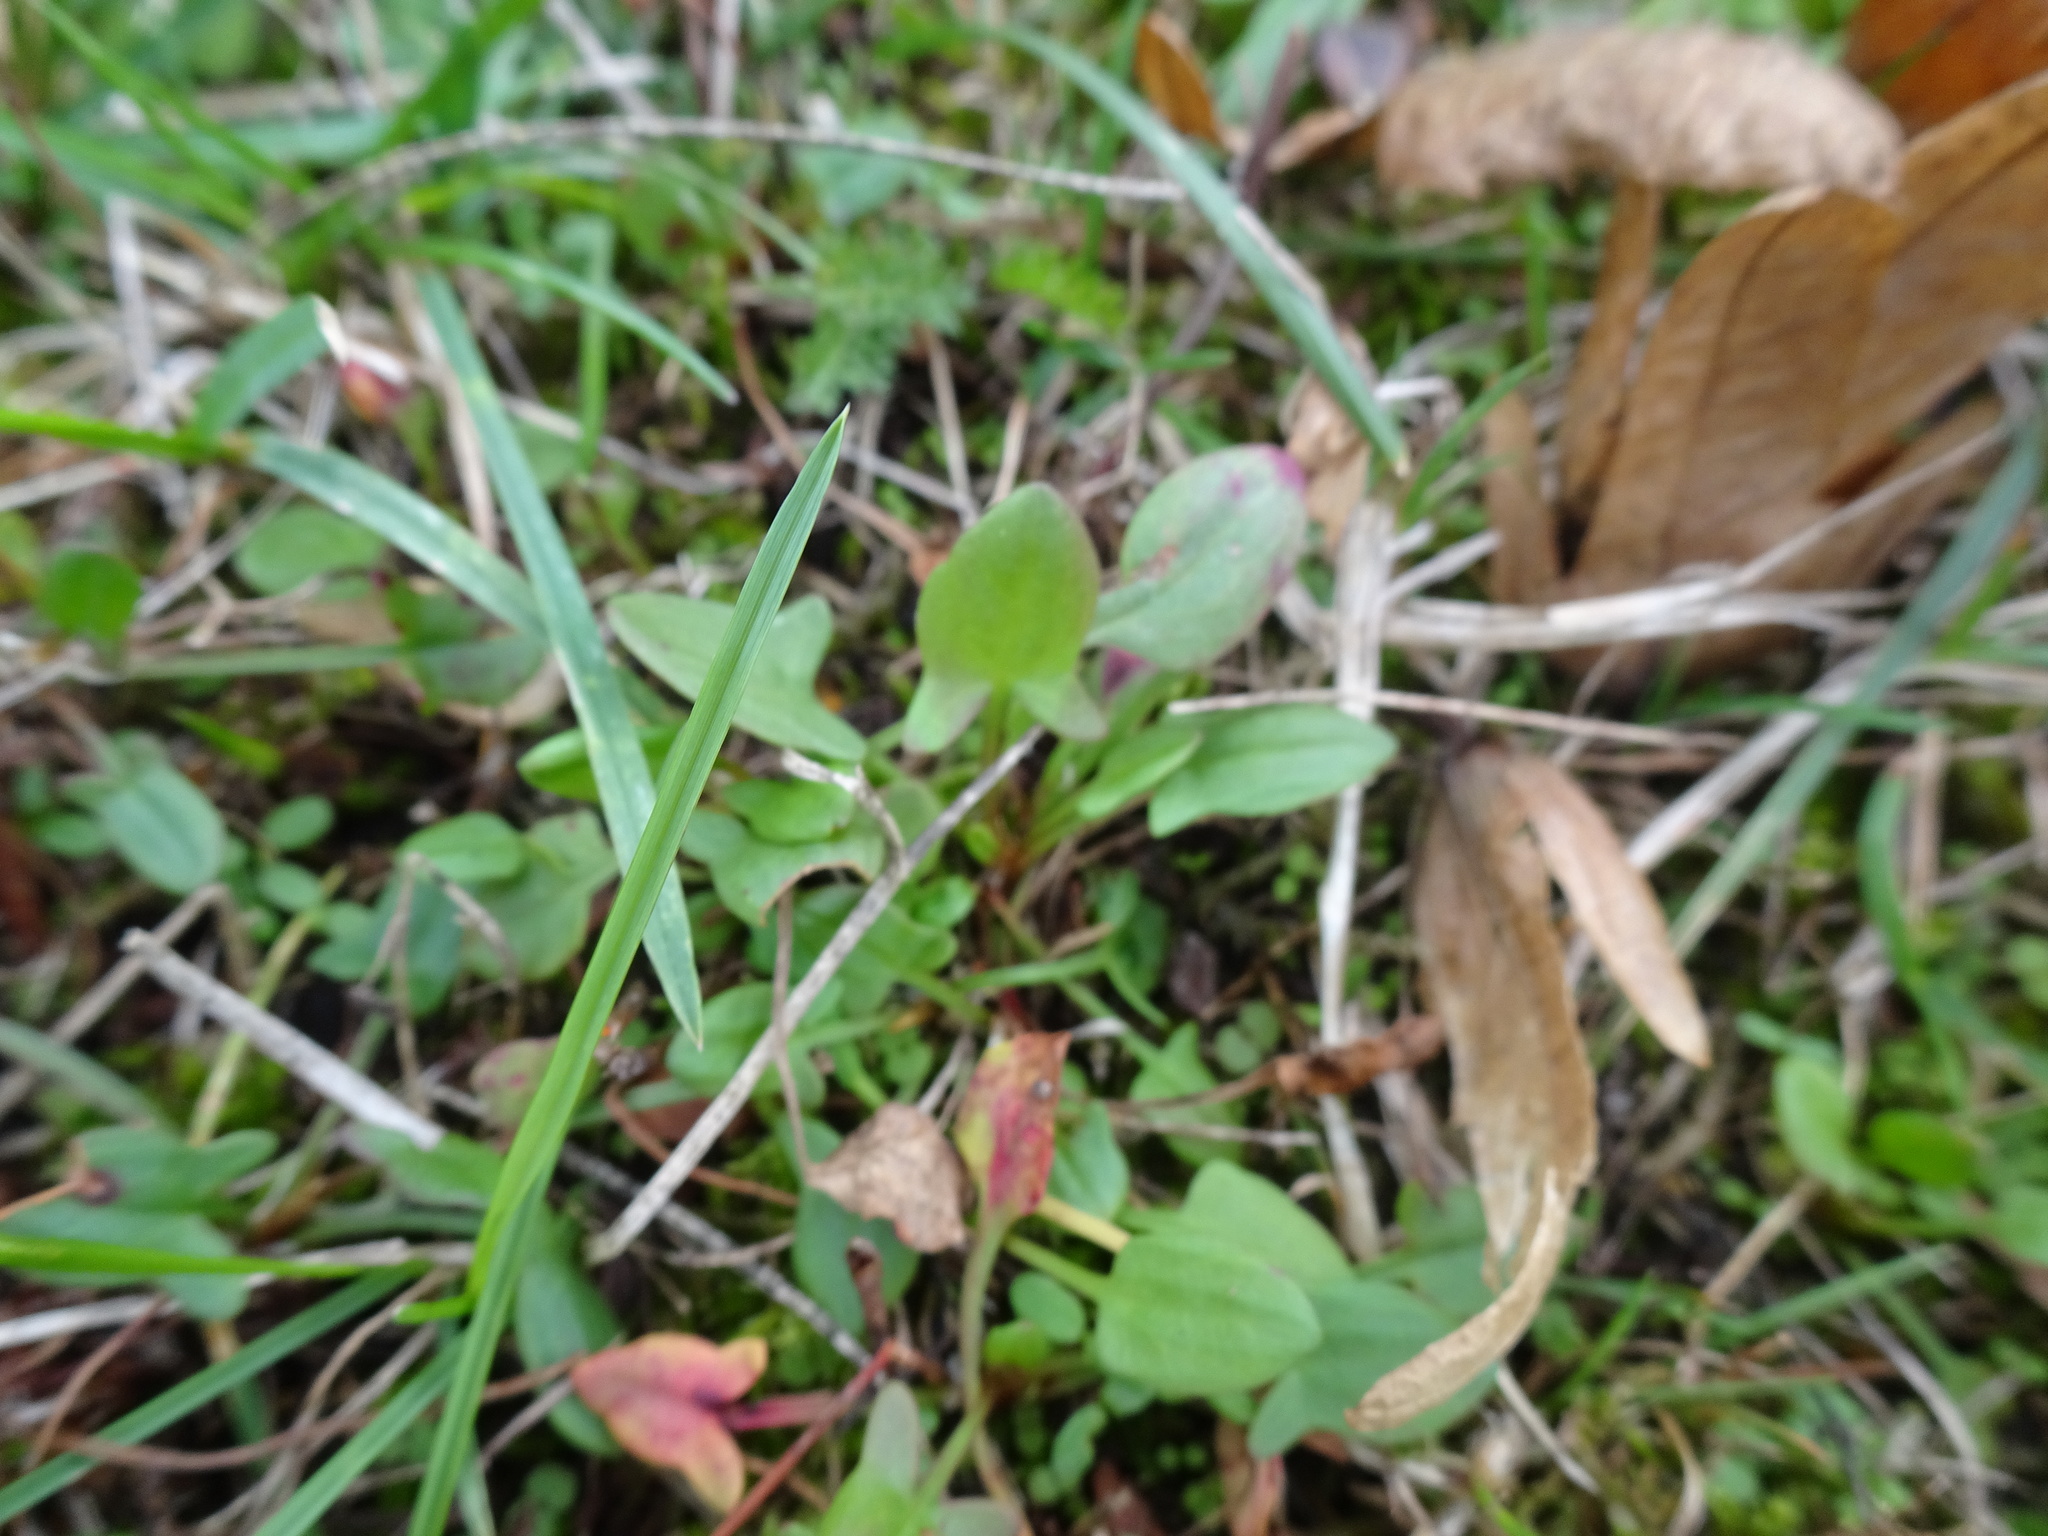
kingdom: Plantae
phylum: Tracheophyta
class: Magnoliopsida
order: Caryophyllales
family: Polygonaceae
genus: Rumex
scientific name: Rumex acetosella
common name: Common sheep sorrel
